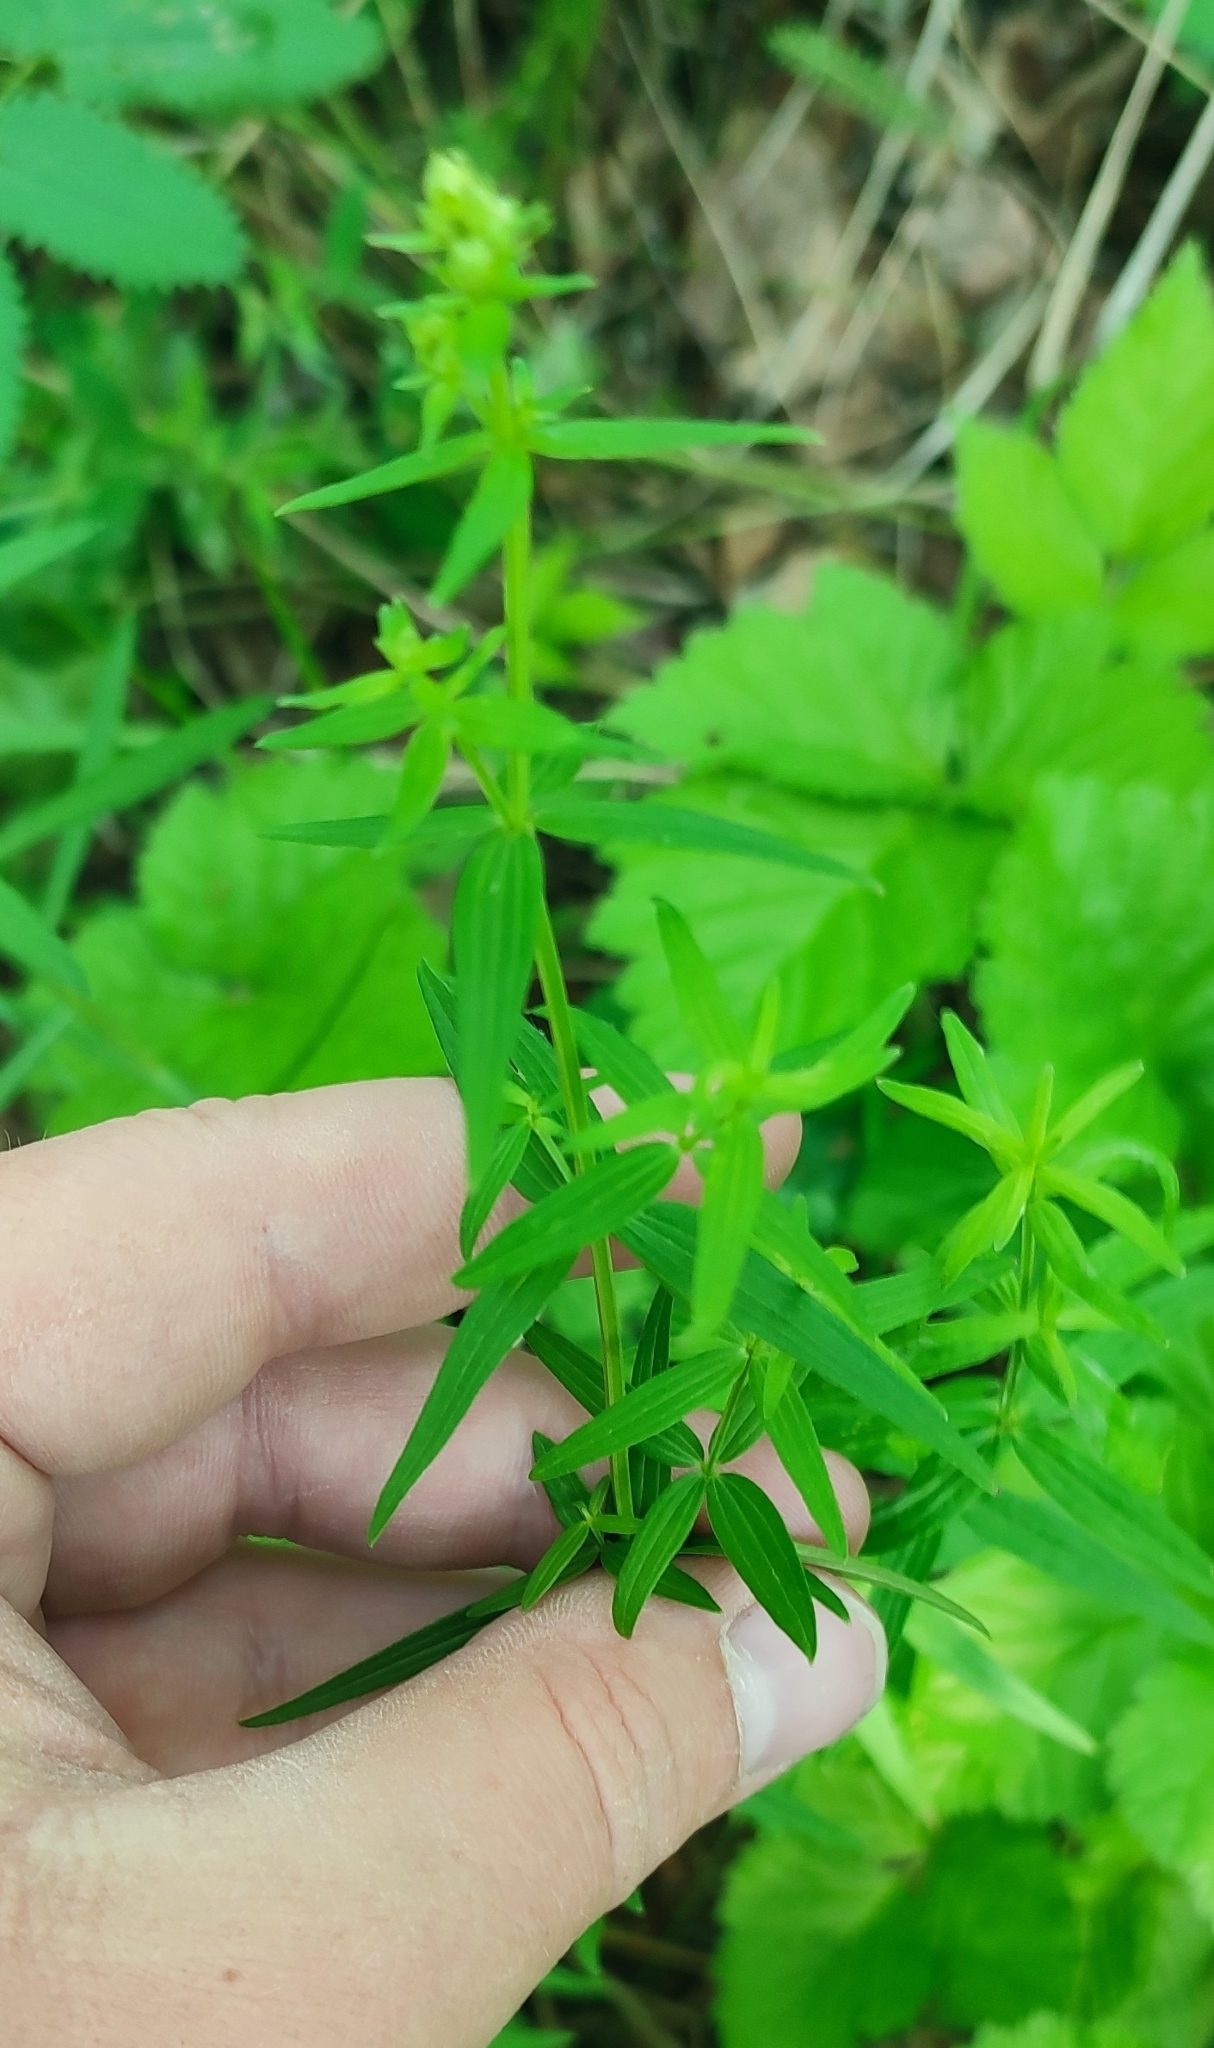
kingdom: Plantae
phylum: Tracheophyta
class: Magnoliopsida
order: Gentianales
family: Rubiaceae
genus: Galium
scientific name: Galium boreale
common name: Northern bedstraw
